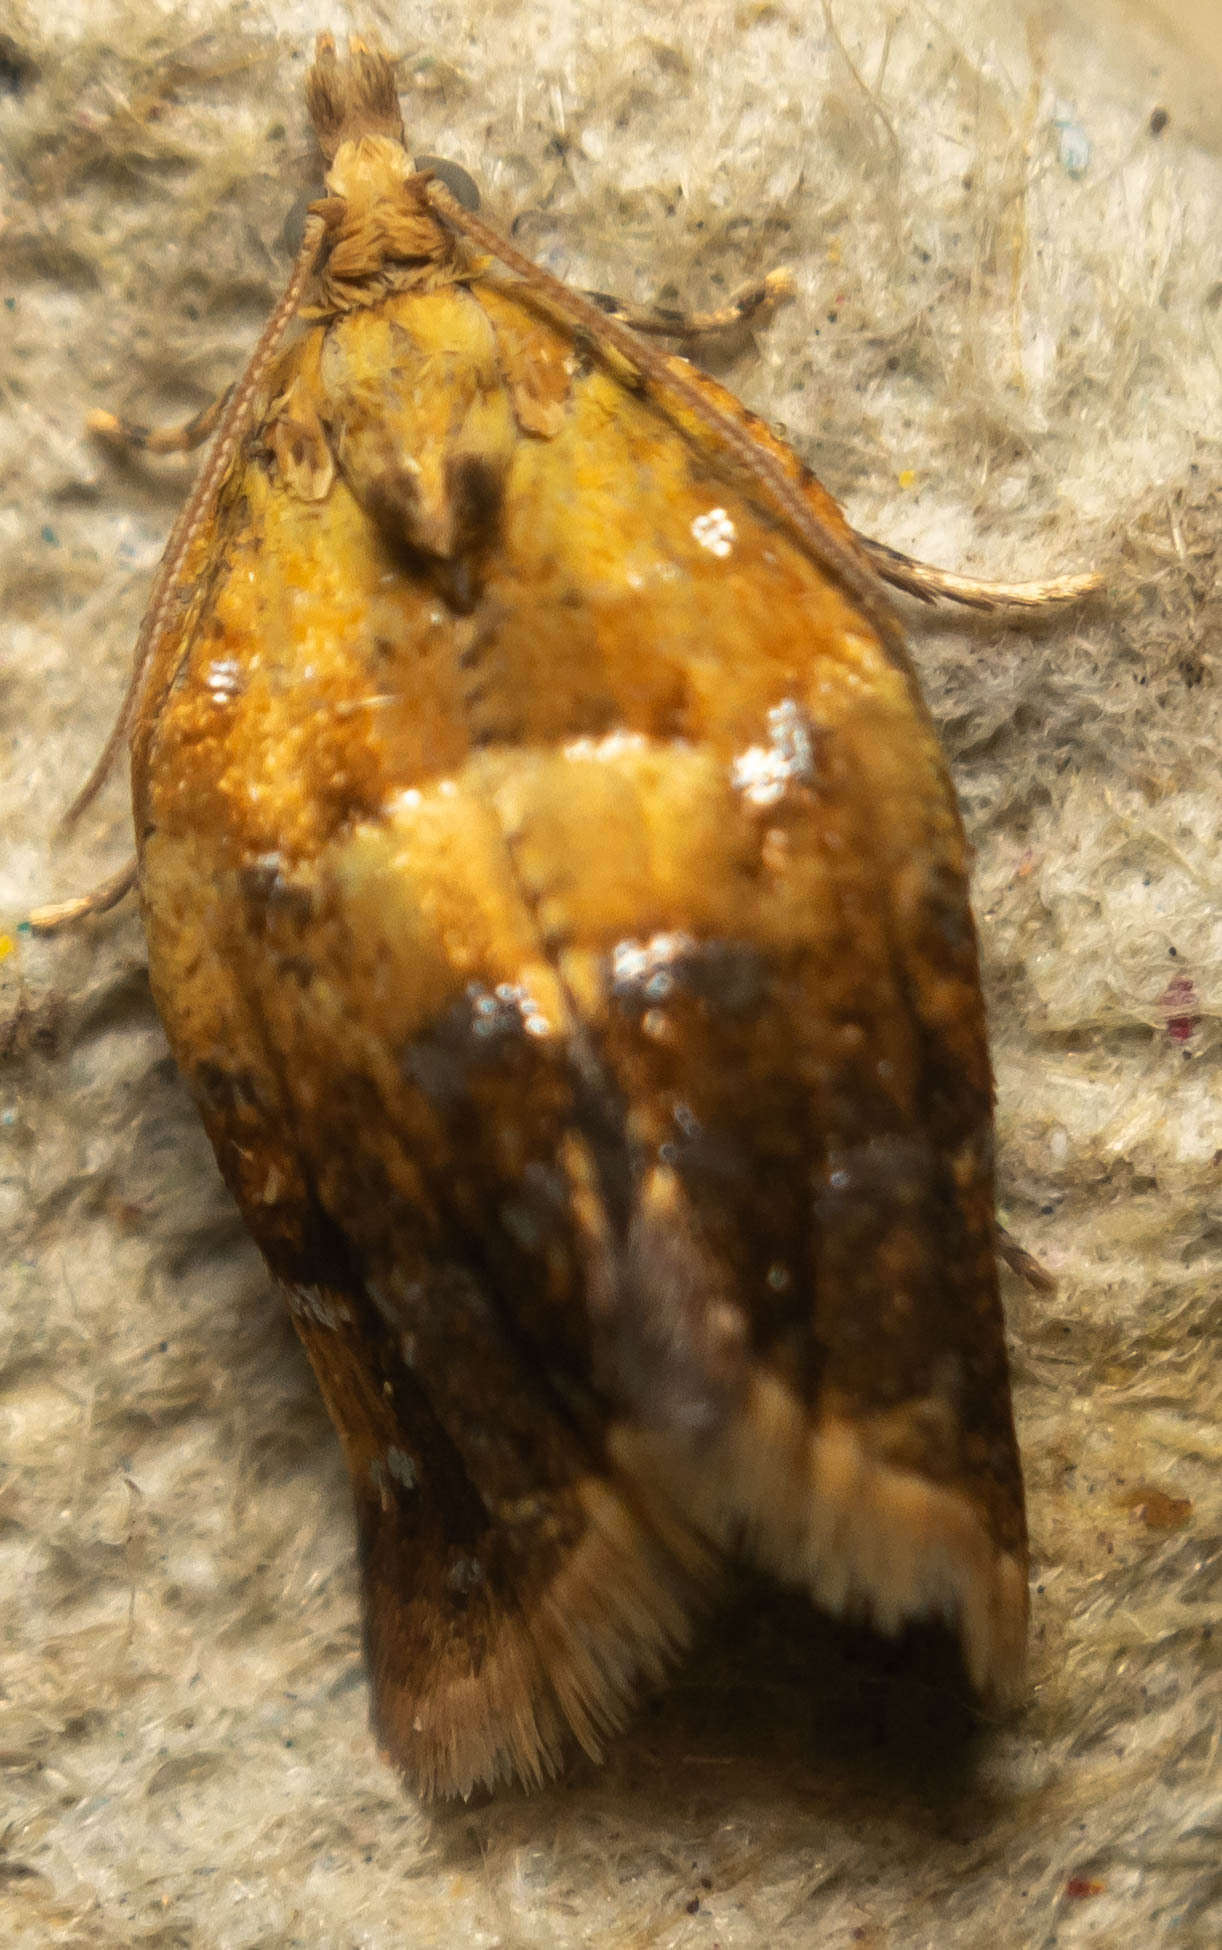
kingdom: Animalia
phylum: Arthropoda
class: Insecta
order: Lepidoptera
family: Tortricidae
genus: Pseudargyrotoza
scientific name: Pseudargyrotoza conwagana
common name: Yellow-spot twist
